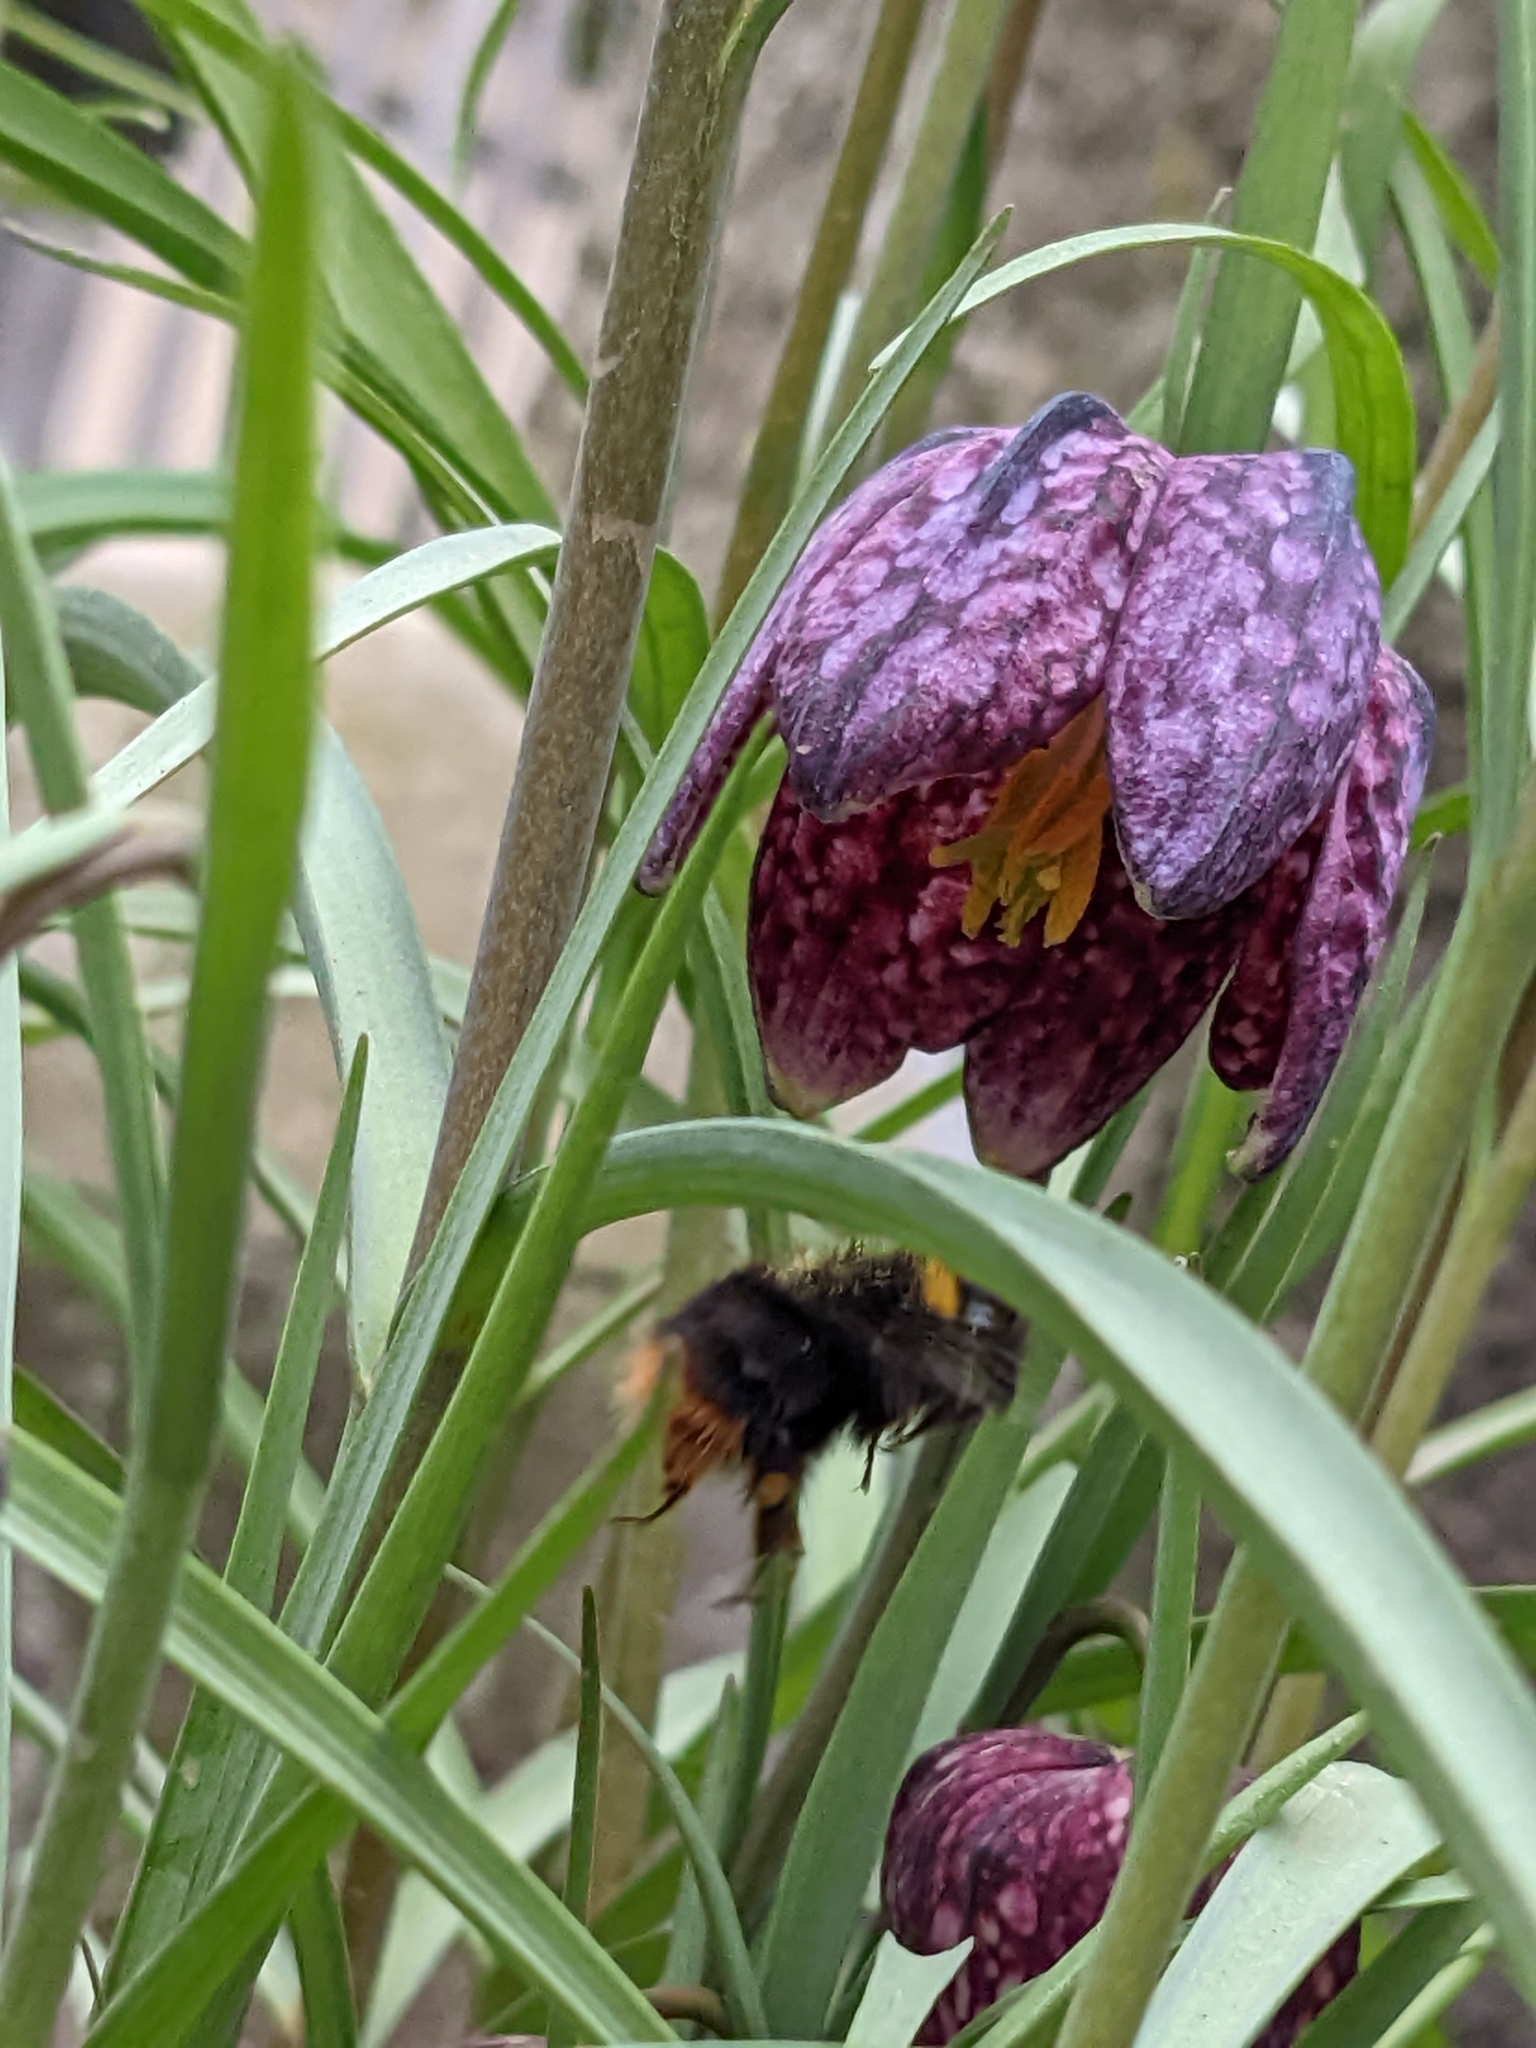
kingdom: Animalia
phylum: Arthropoda
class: Insecta
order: Hymenoptera
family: Apidae
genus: Bombus
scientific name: Bombus pratorum
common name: Early humble-bee
